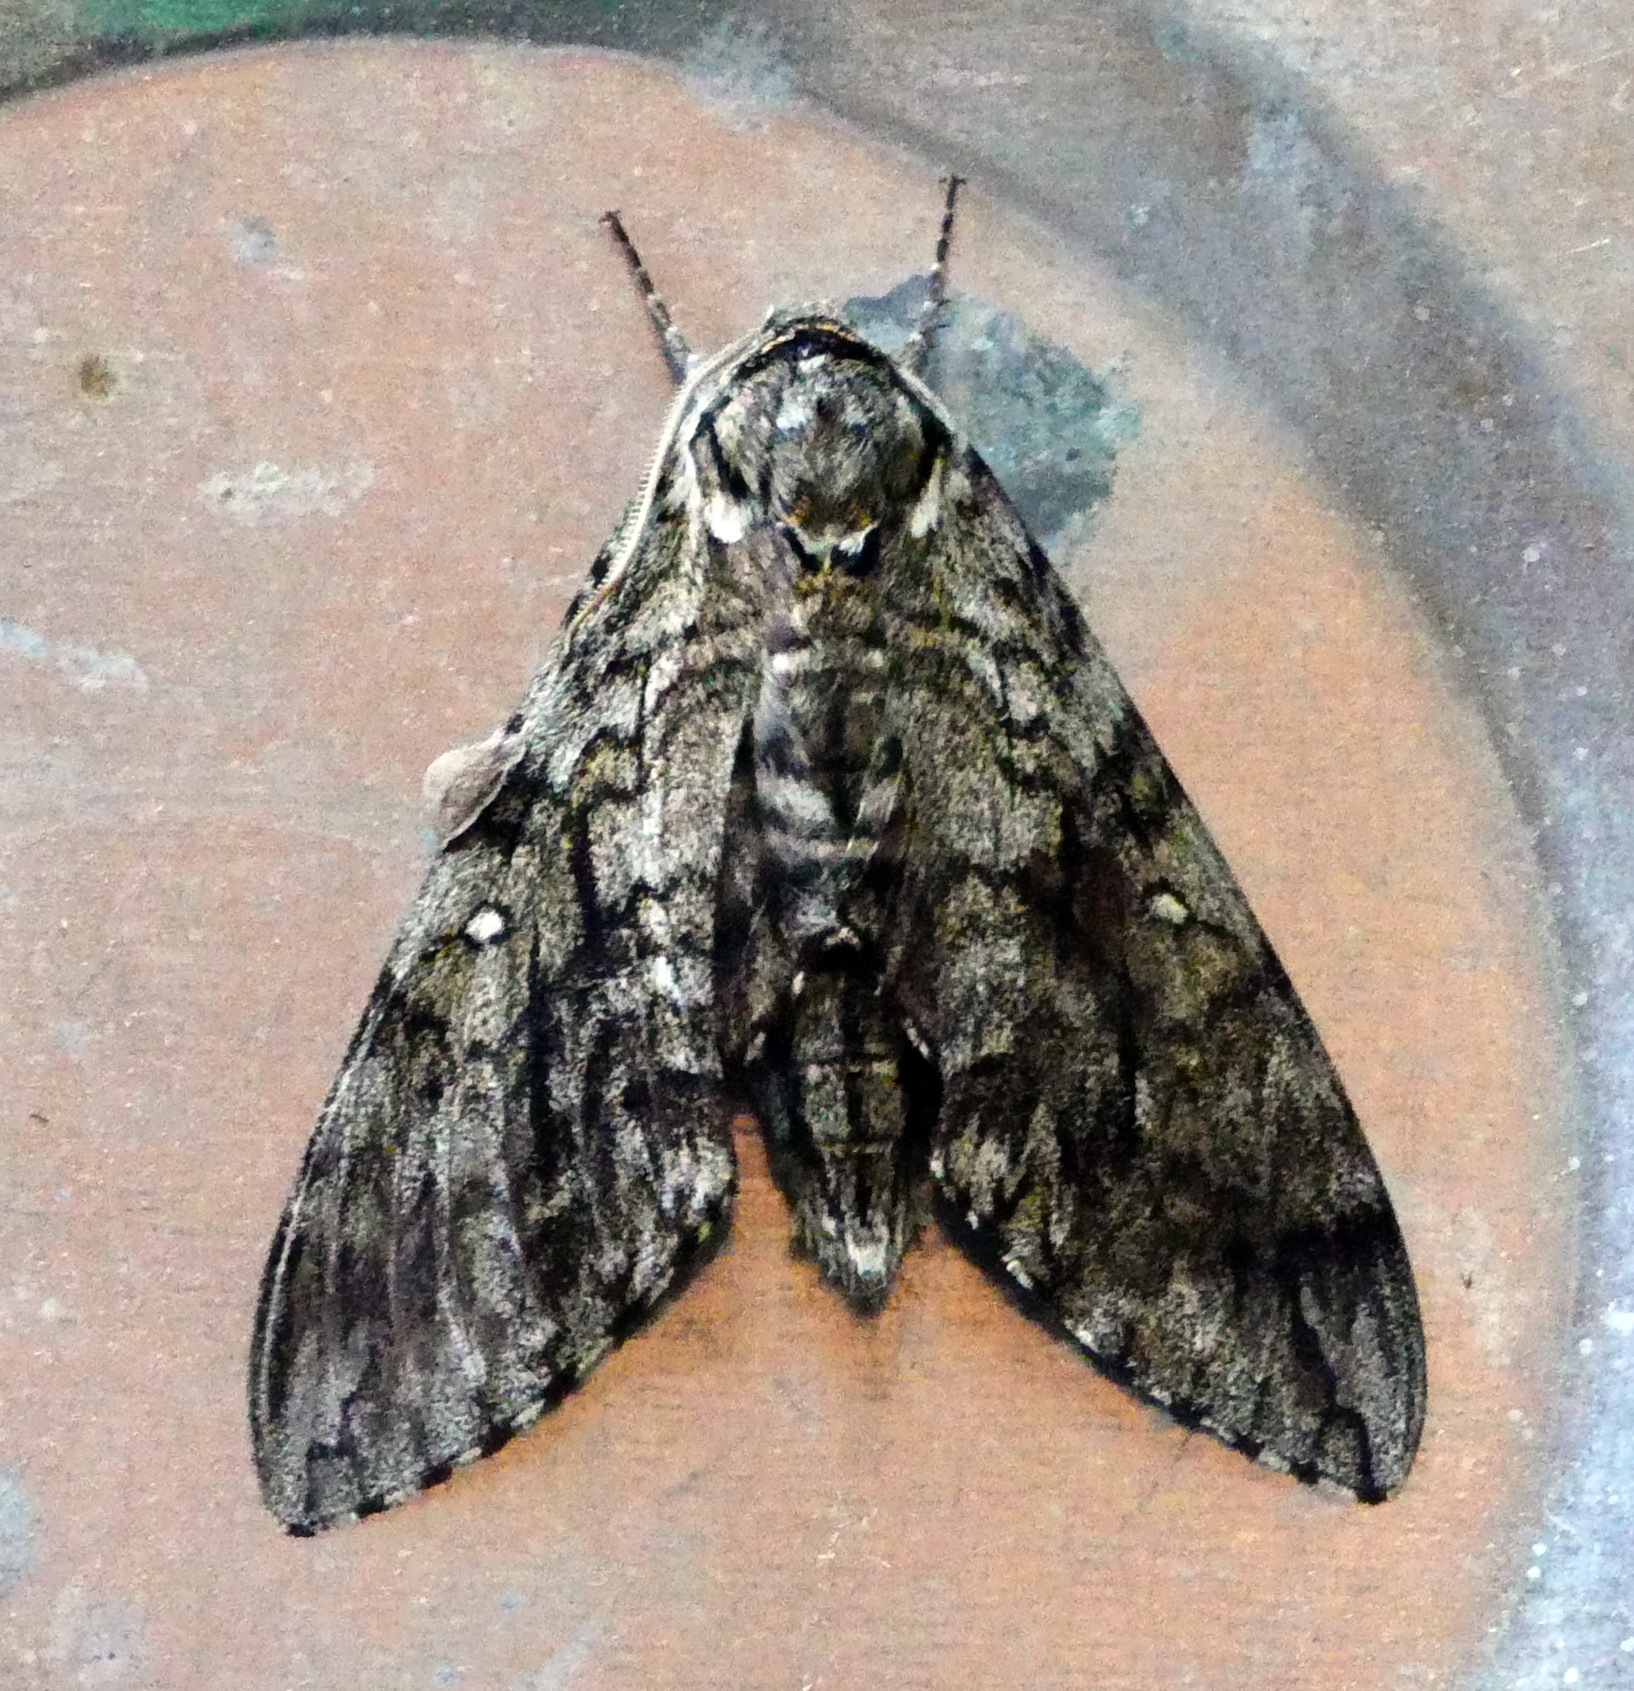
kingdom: Animalia
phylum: Arthropoda
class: Insecta
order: Lepidoptera
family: Sphingidae
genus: Ceratomia
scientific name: Ceratomia undulosa
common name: Waved sphinx
